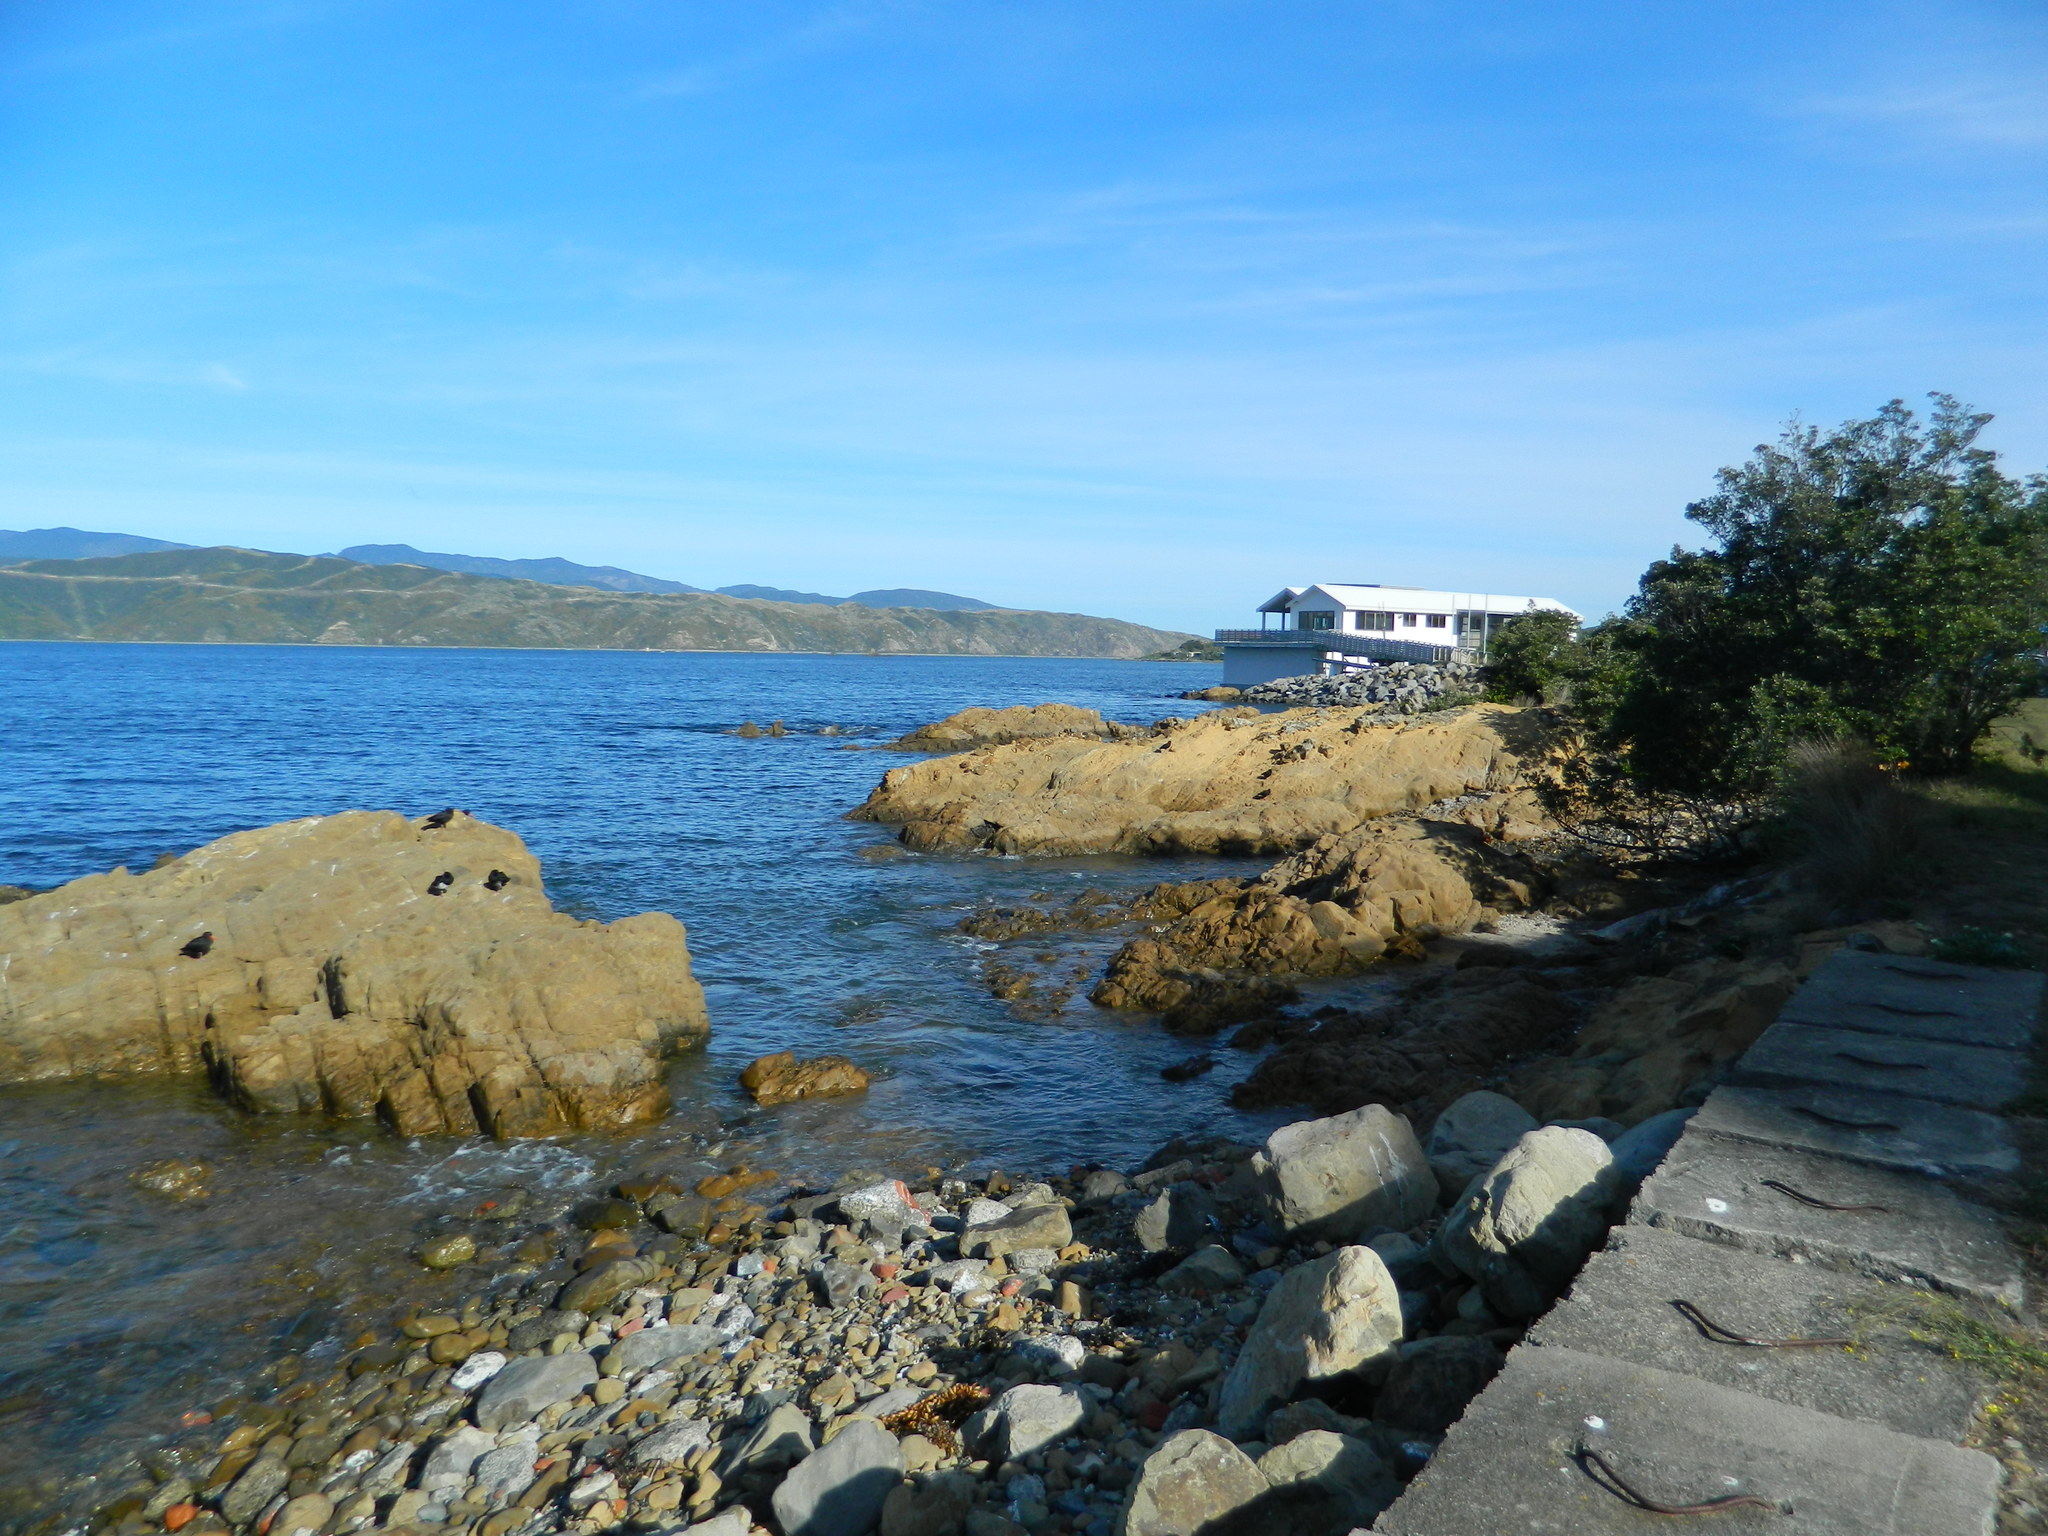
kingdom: Animalia
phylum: Chordata
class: Aves
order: Charadriiformes
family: Haematopodidae
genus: Haematopus
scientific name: Haematopus unicolor
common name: Variable oystercatcher
